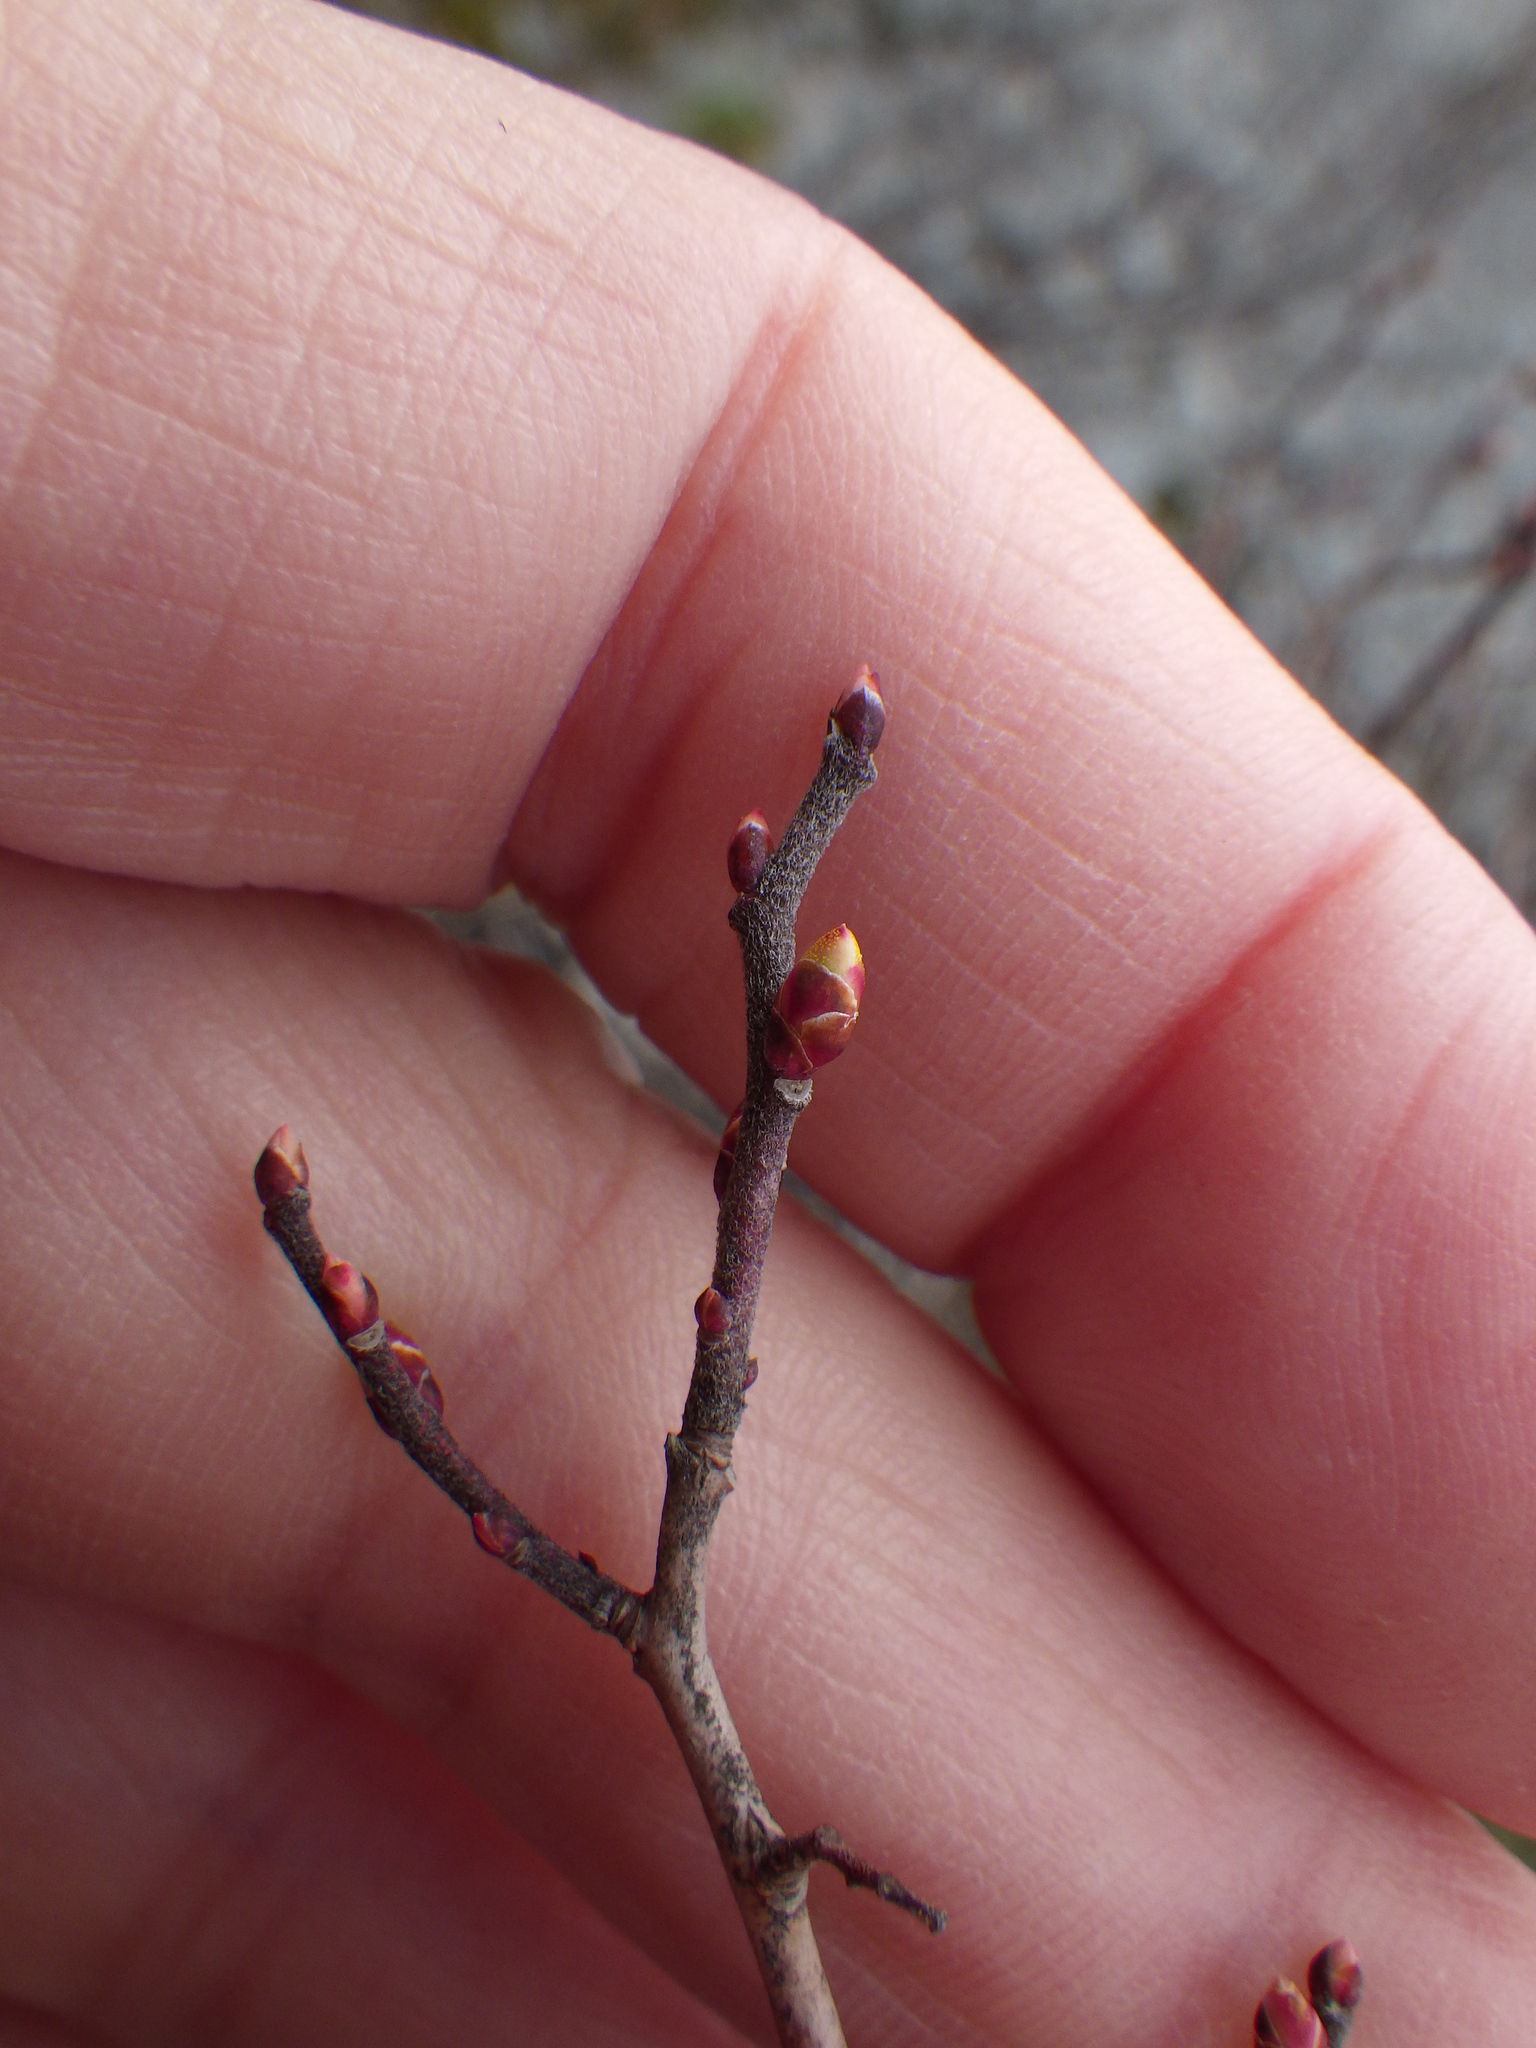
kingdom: Plantae
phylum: Tracheophyta
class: Magnoliopsida
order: Ericales
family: Ericaceae
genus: Gaylussacia
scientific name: Gaylussacia baccata
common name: Black huckleberry
